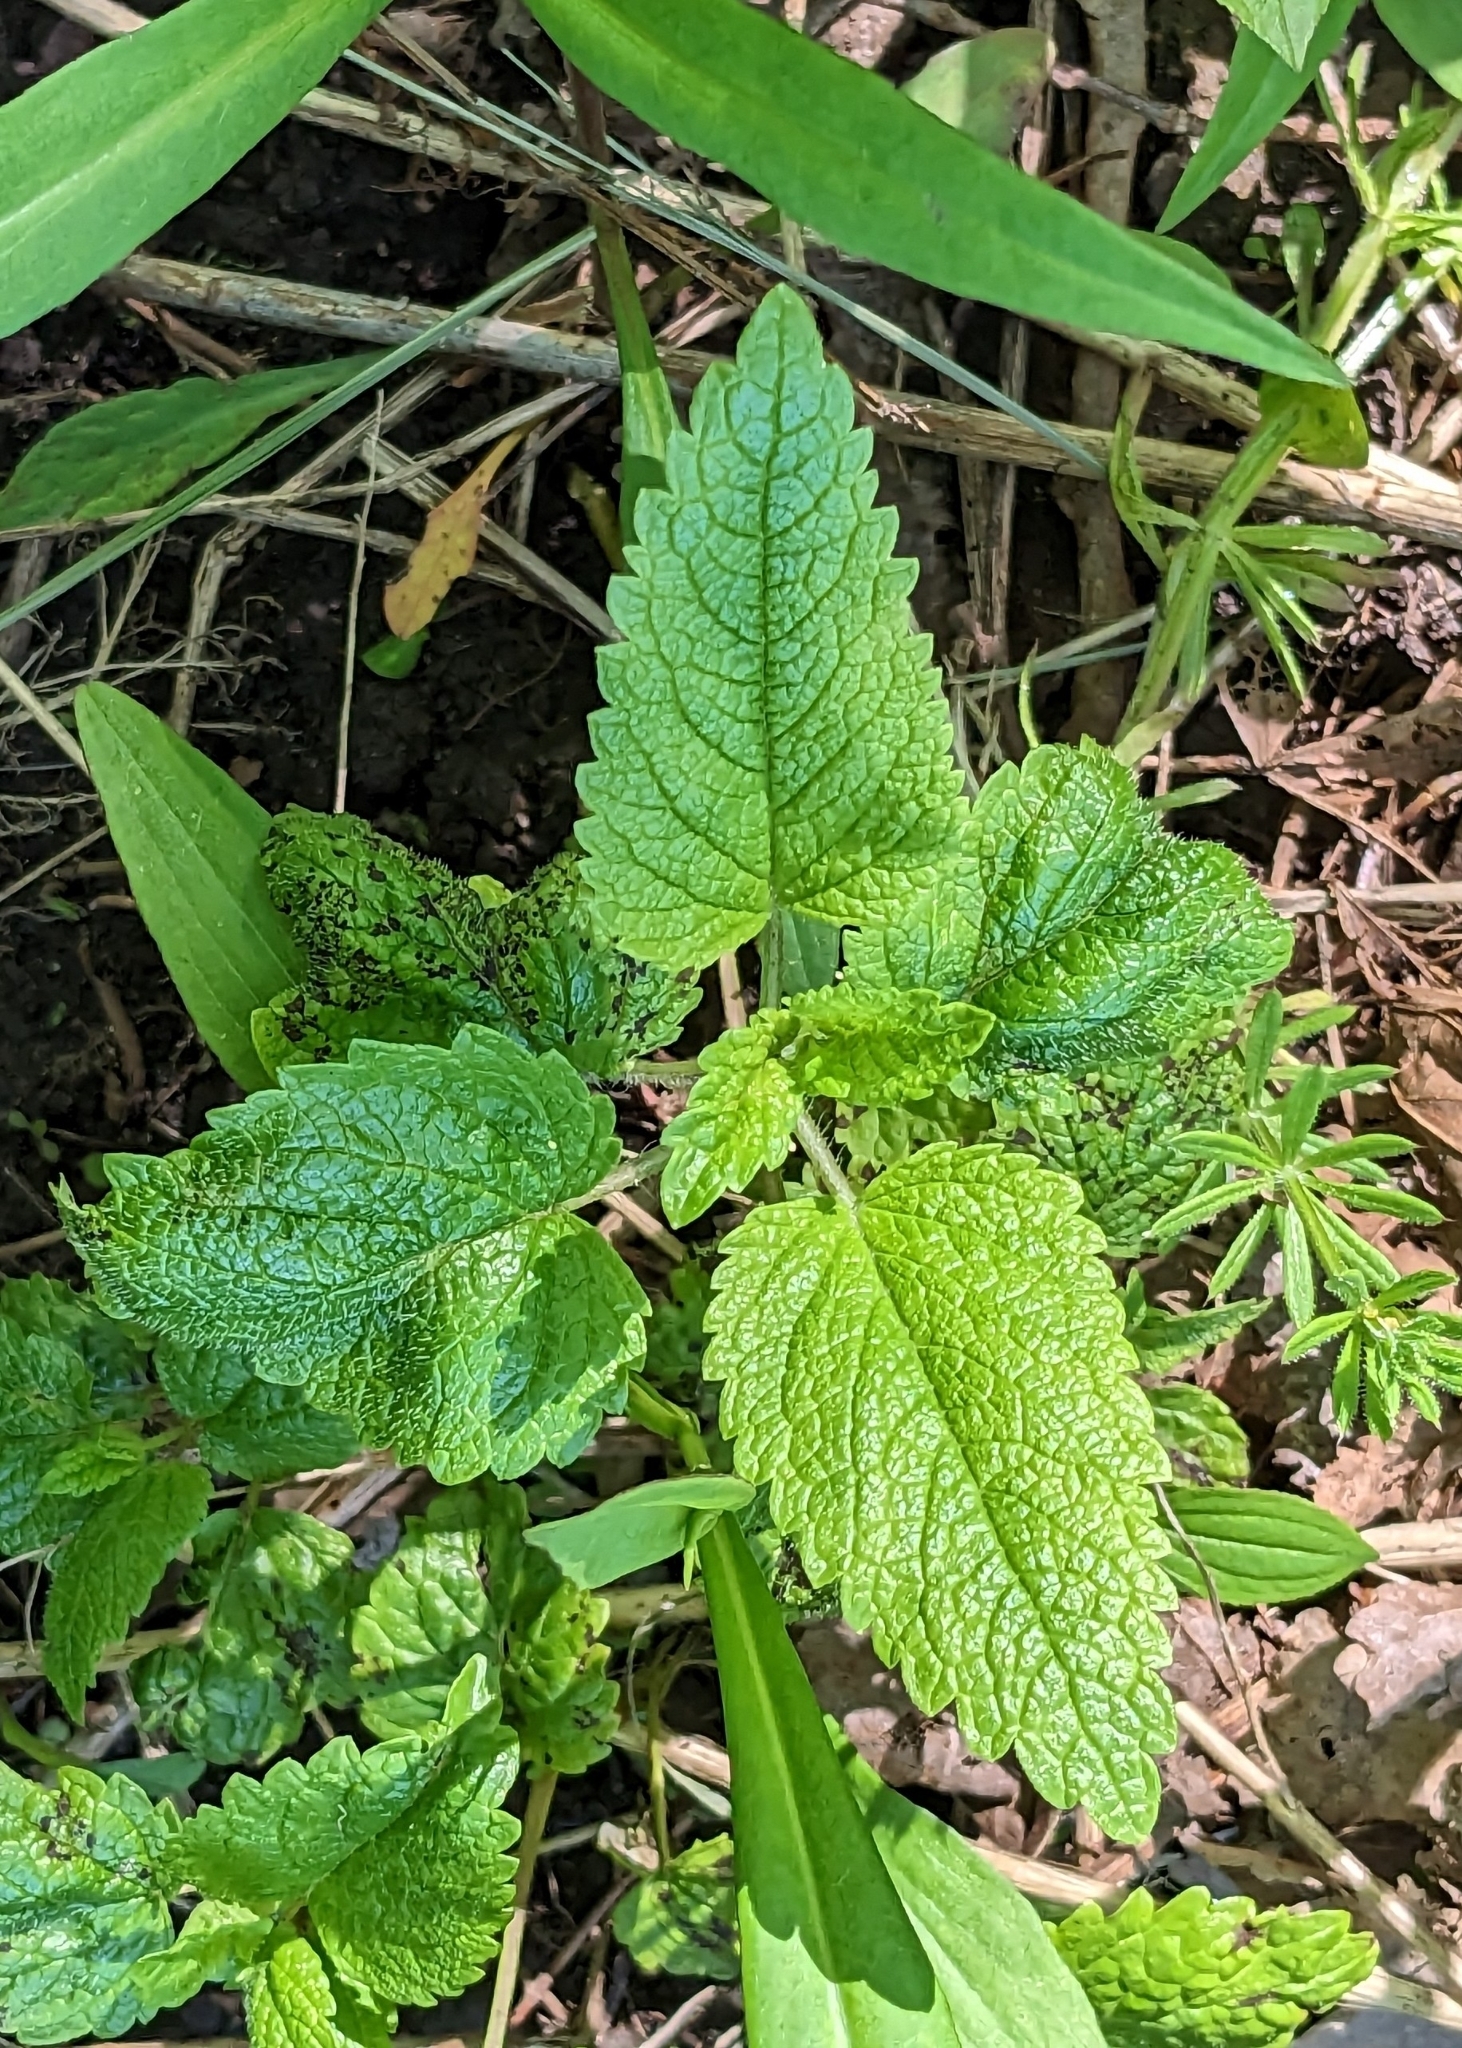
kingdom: Plantae
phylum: Tracheophyta
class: Magnoliopsida
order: Lamiales
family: Lamiaceae
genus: Melissa
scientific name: Melissa officinalis
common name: Balm
